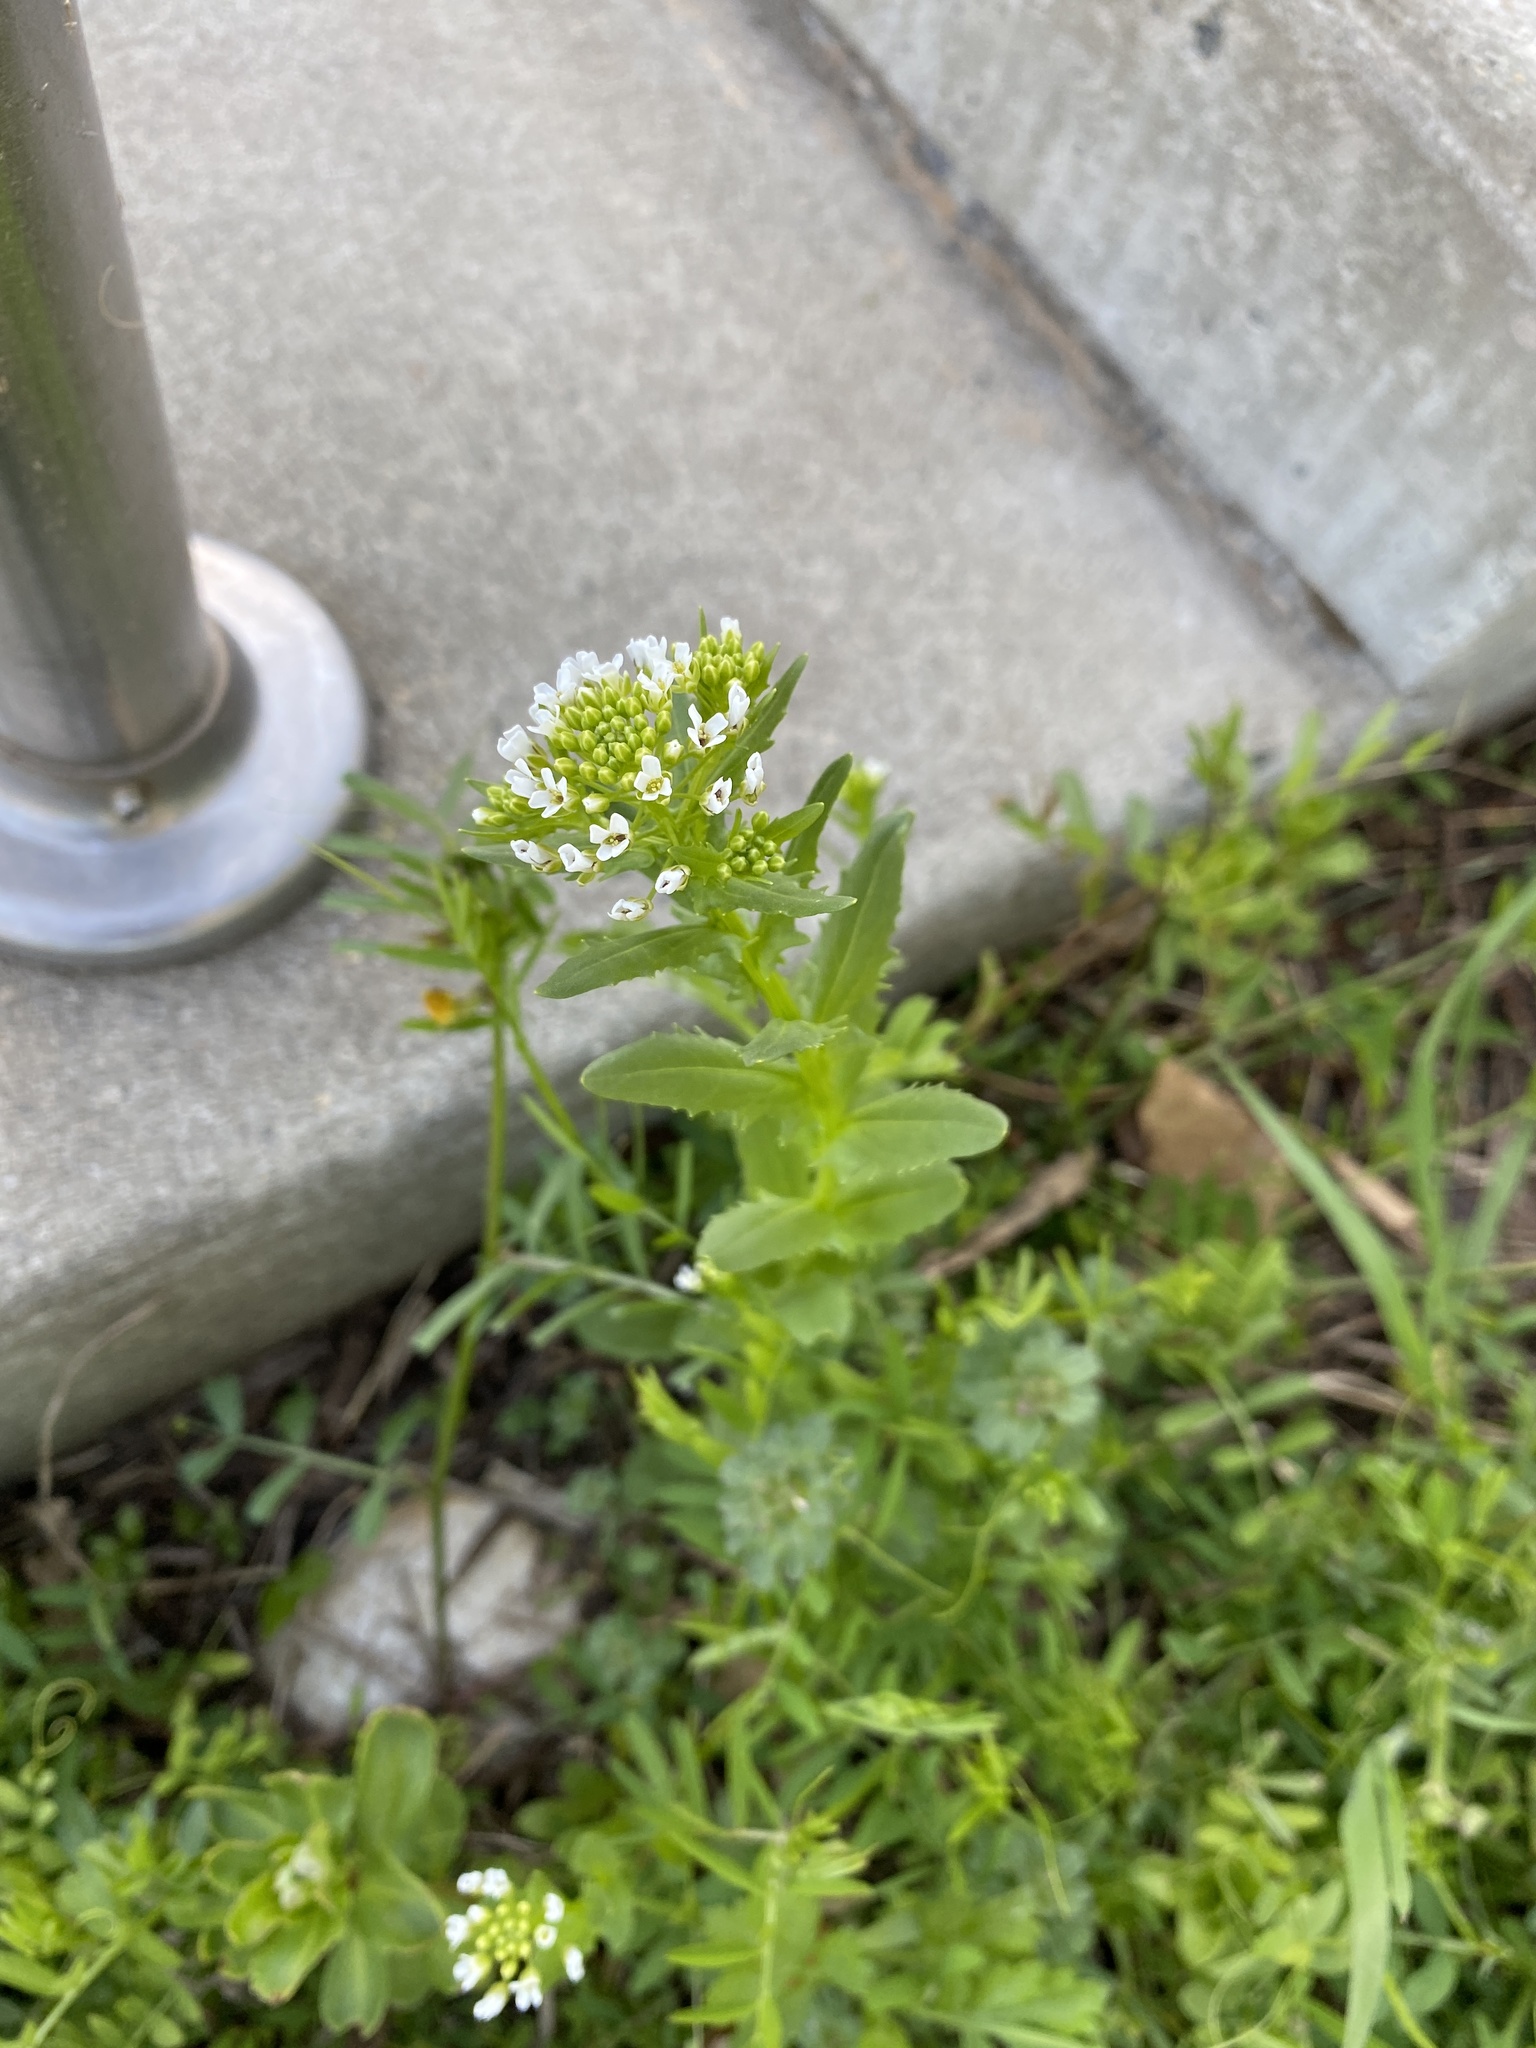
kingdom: Plantae
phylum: Tracheophyta
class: Magnoliopsida
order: Brassicales
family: Brassicaceae
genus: Thlaspi
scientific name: Thlaspi arvense
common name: Field pennycress
